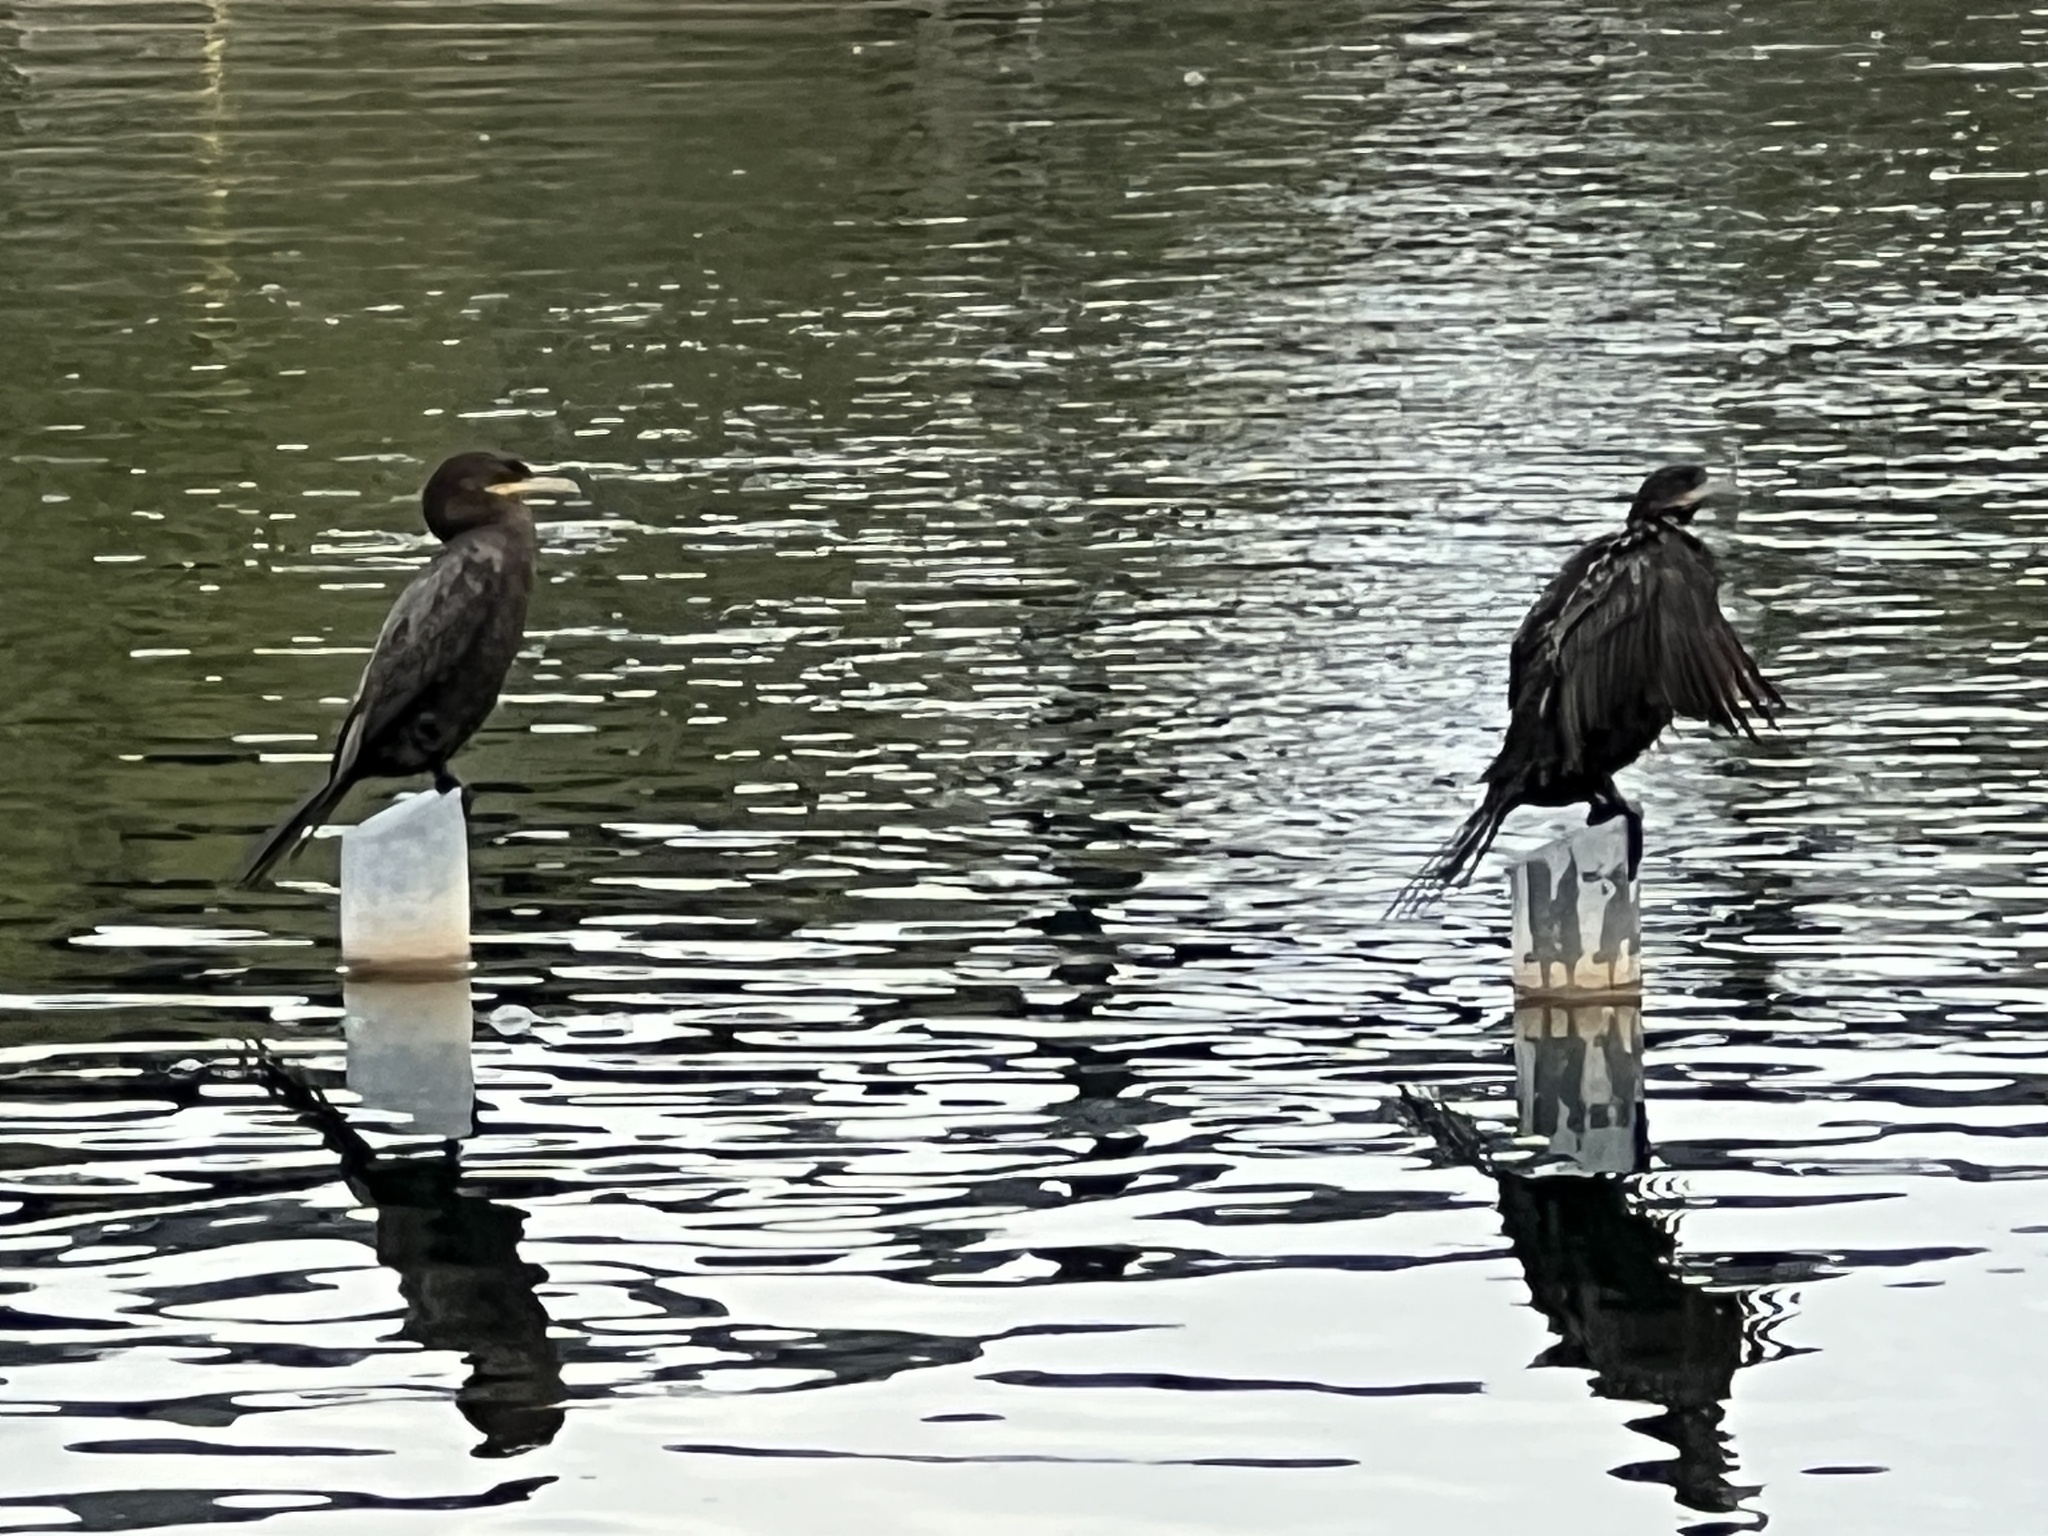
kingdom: Animalia
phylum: Chordata
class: Aves
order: Suliformes
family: Phalacrocoracidae
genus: Phalacrocorax
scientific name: Phalacrocorax brasilianus
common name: Neotropic cormorant
